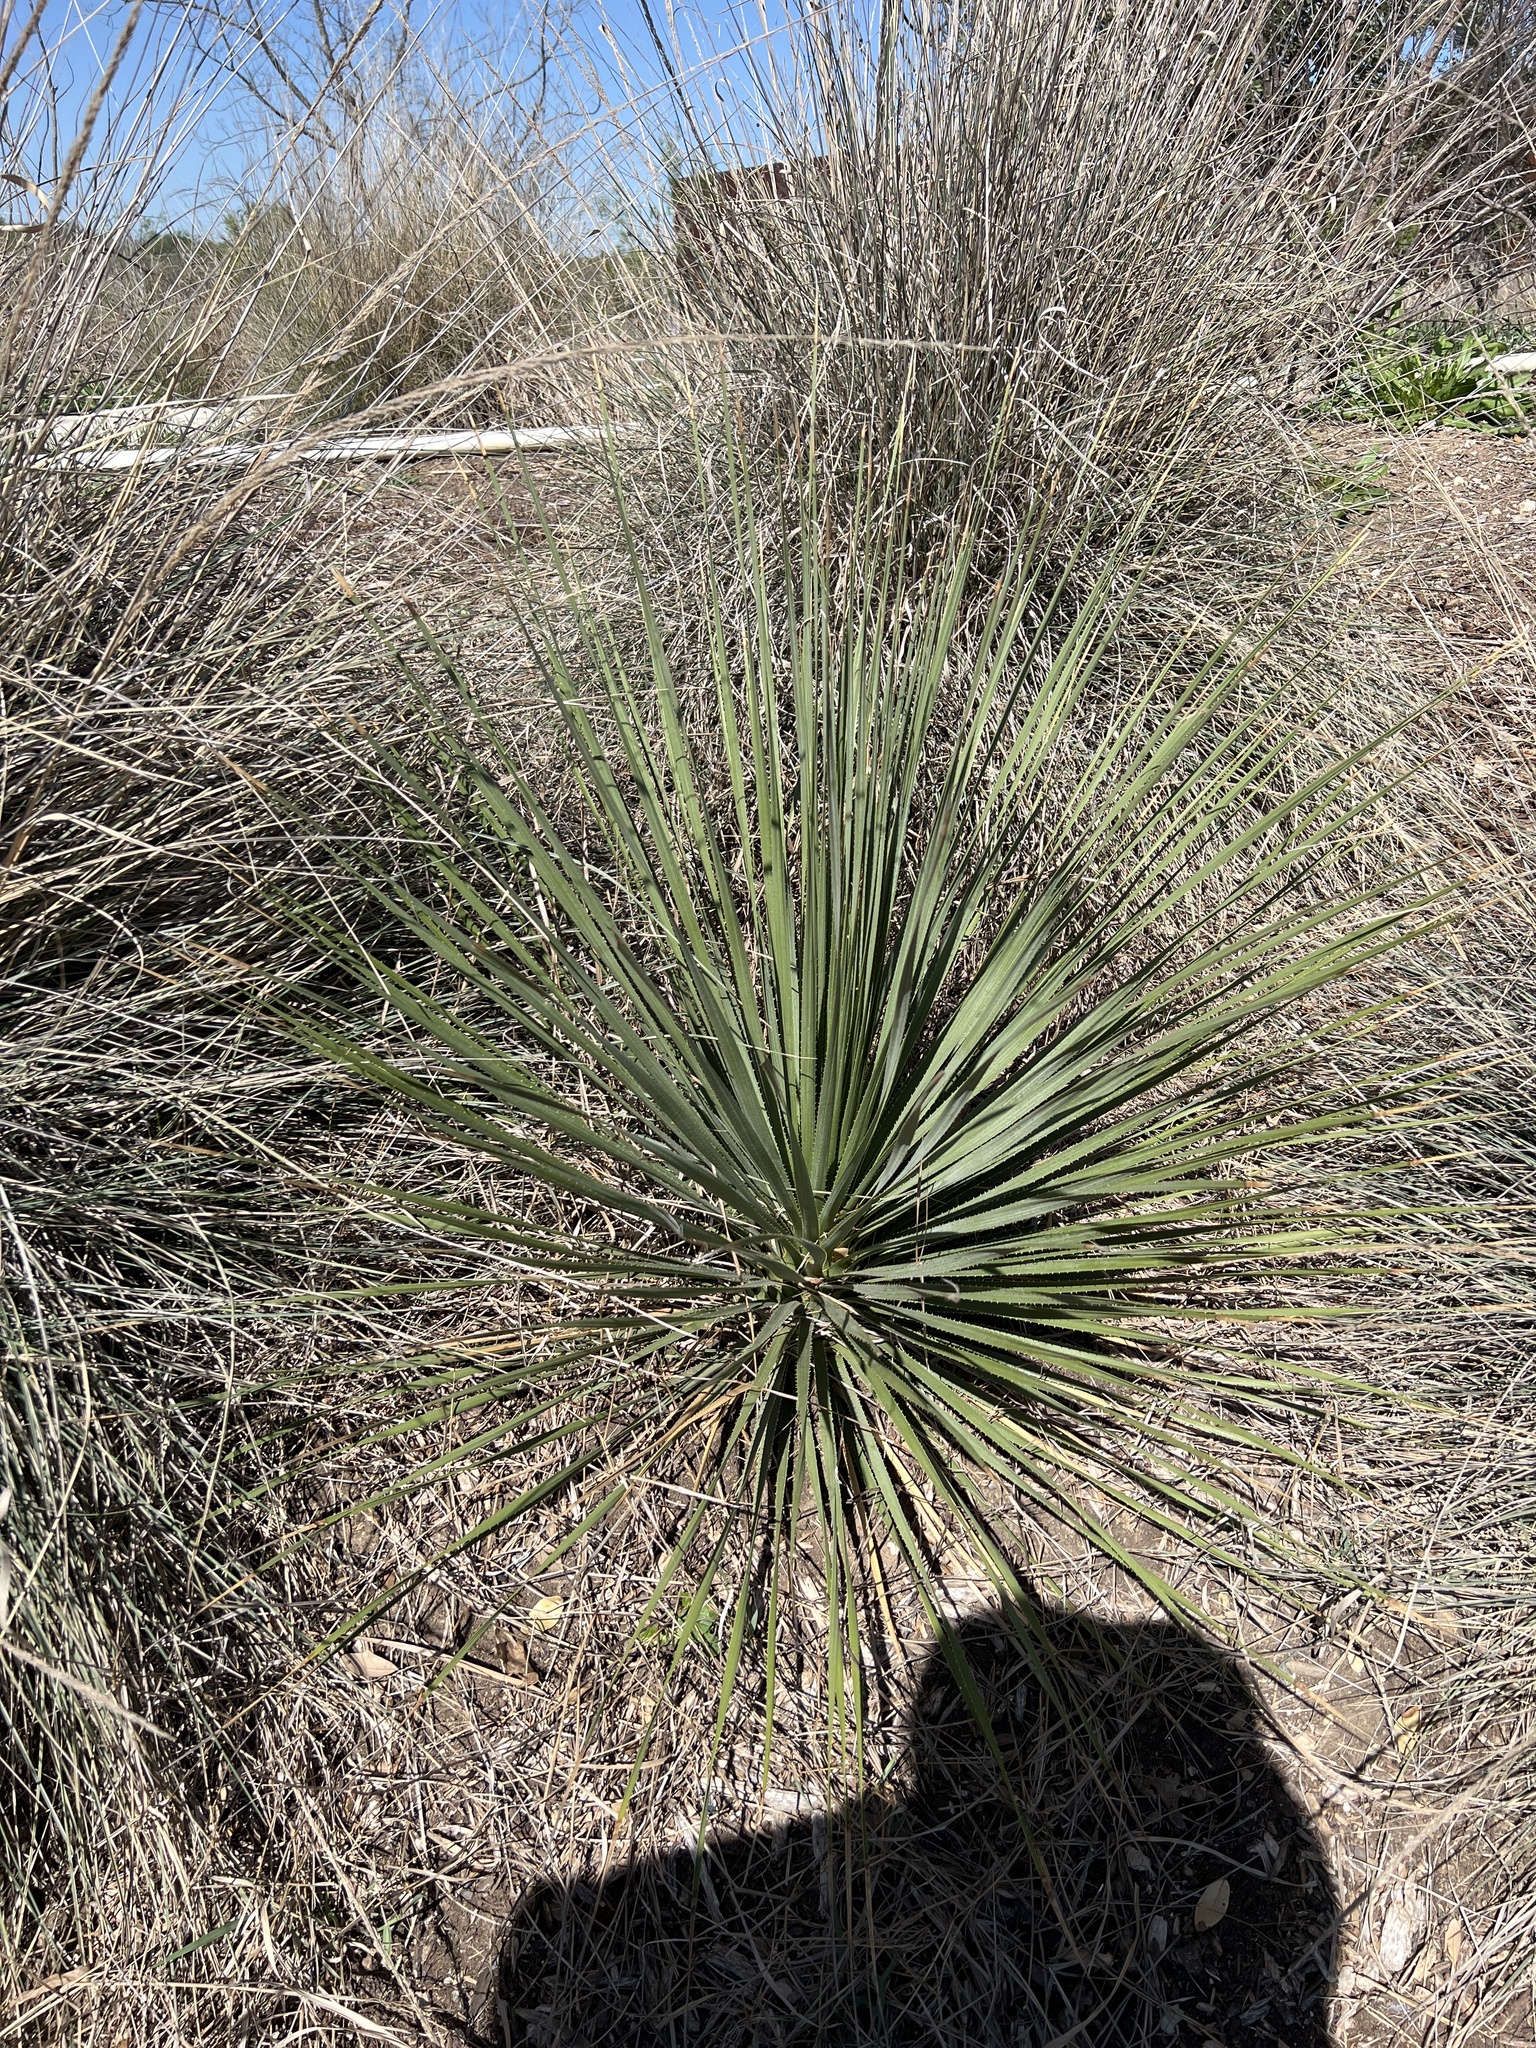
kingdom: Plantae
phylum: Tracheophyta
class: Liliopsida
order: Asparagales
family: Asparagaceae
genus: Dasylirion
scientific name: Dasylirion texanum
